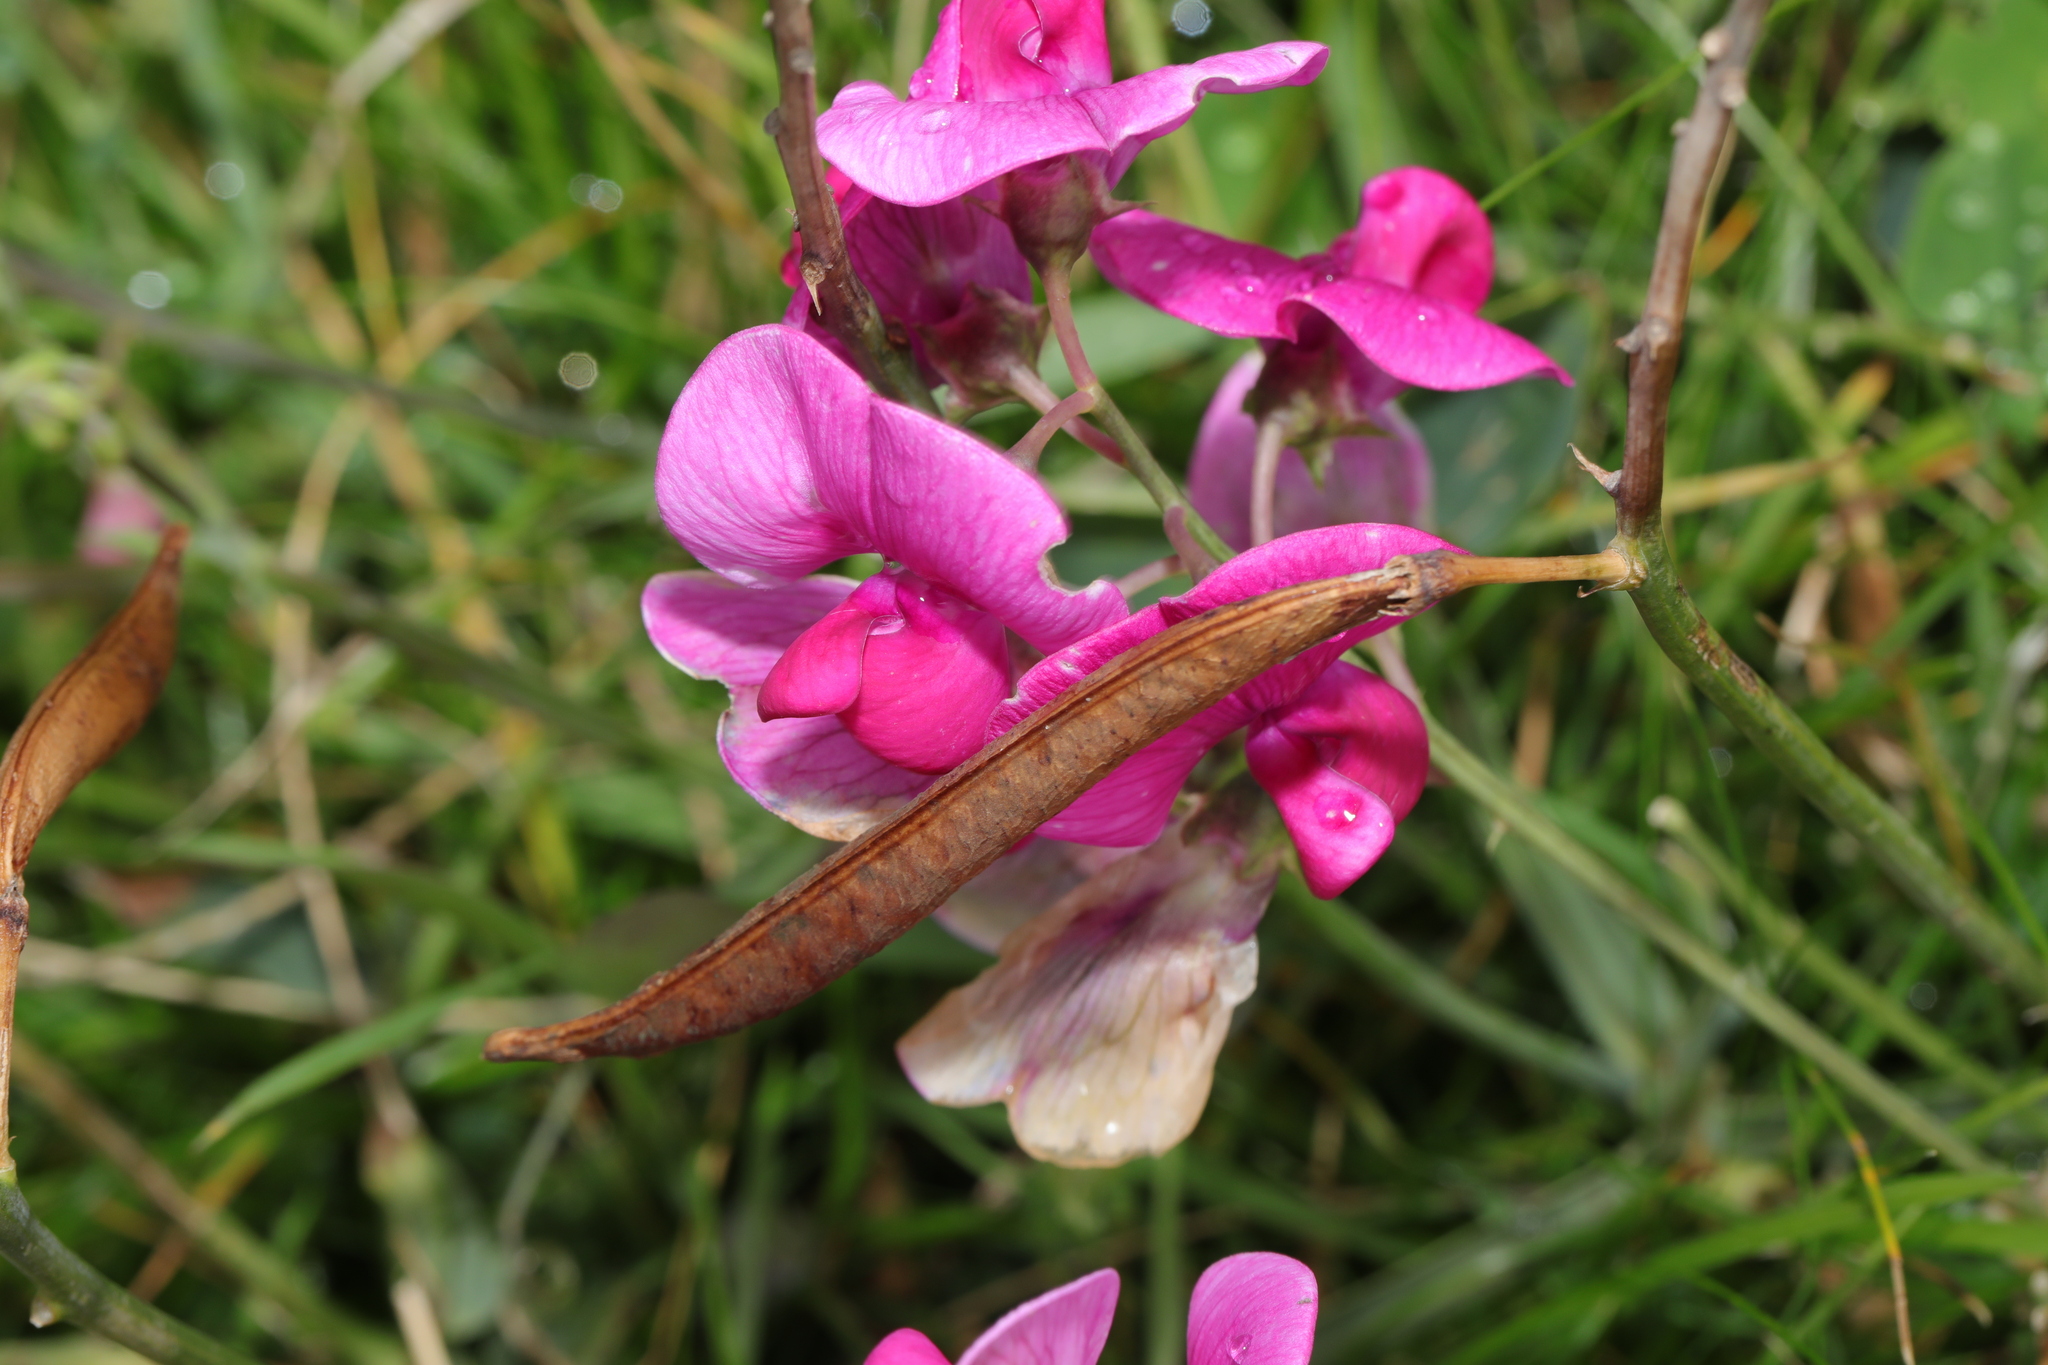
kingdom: Plantae
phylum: Tracheophyta
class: Magnoliopsida
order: Fabales
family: Fabaceae
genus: Lathyrus
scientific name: Lathyrus latifolius
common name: Perennial pea
